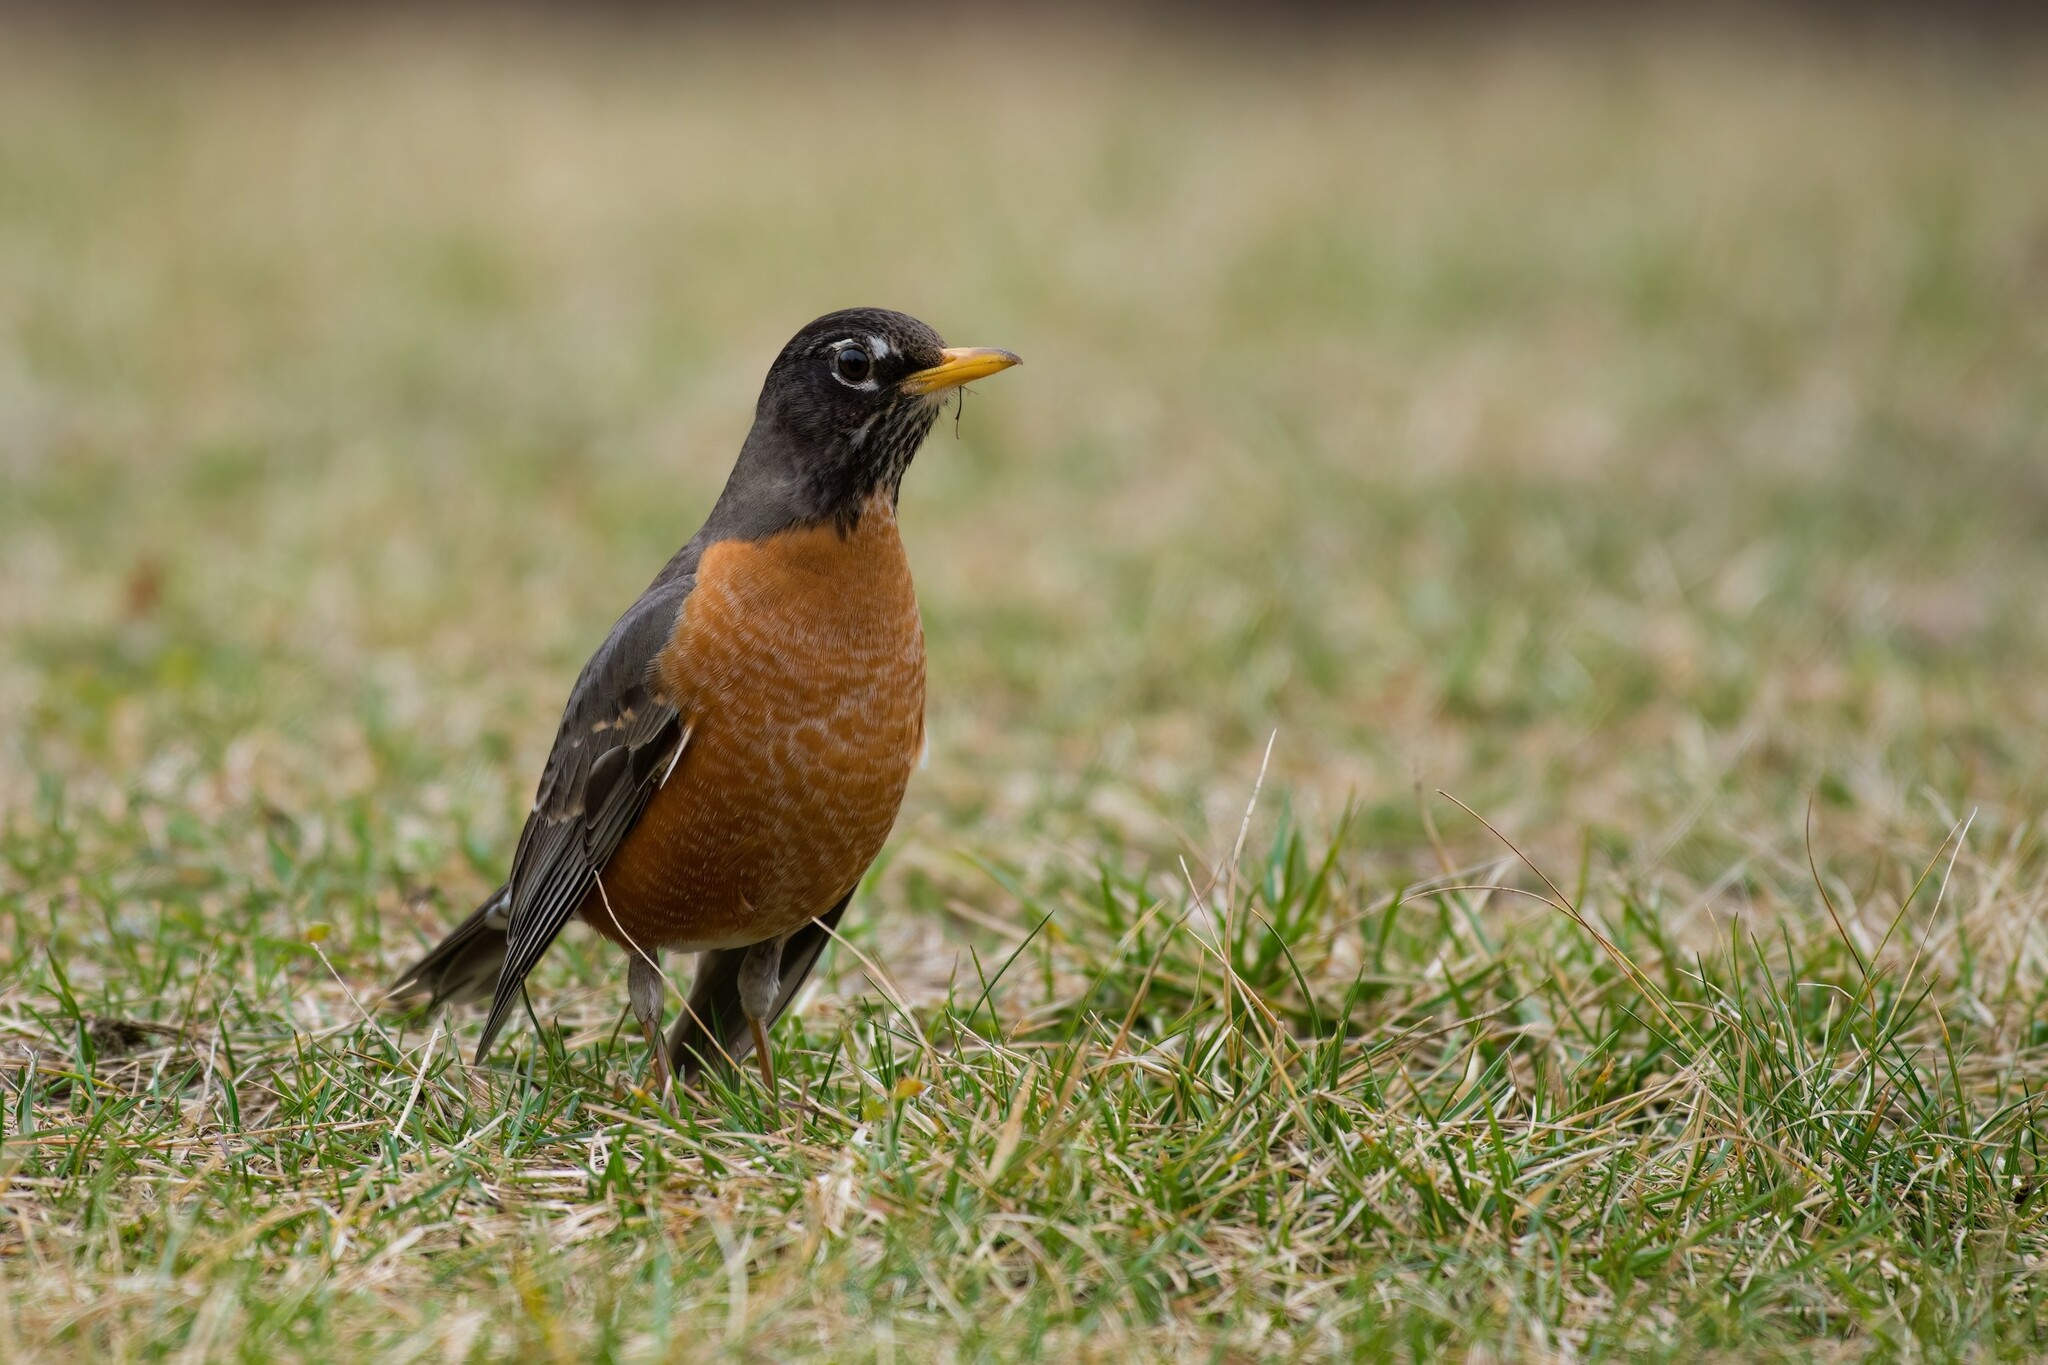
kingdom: Animalia
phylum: Chordata
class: Aves
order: Passeriformes
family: Turdidae
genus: Turdus
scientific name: Turdus migratorius
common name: American robin
